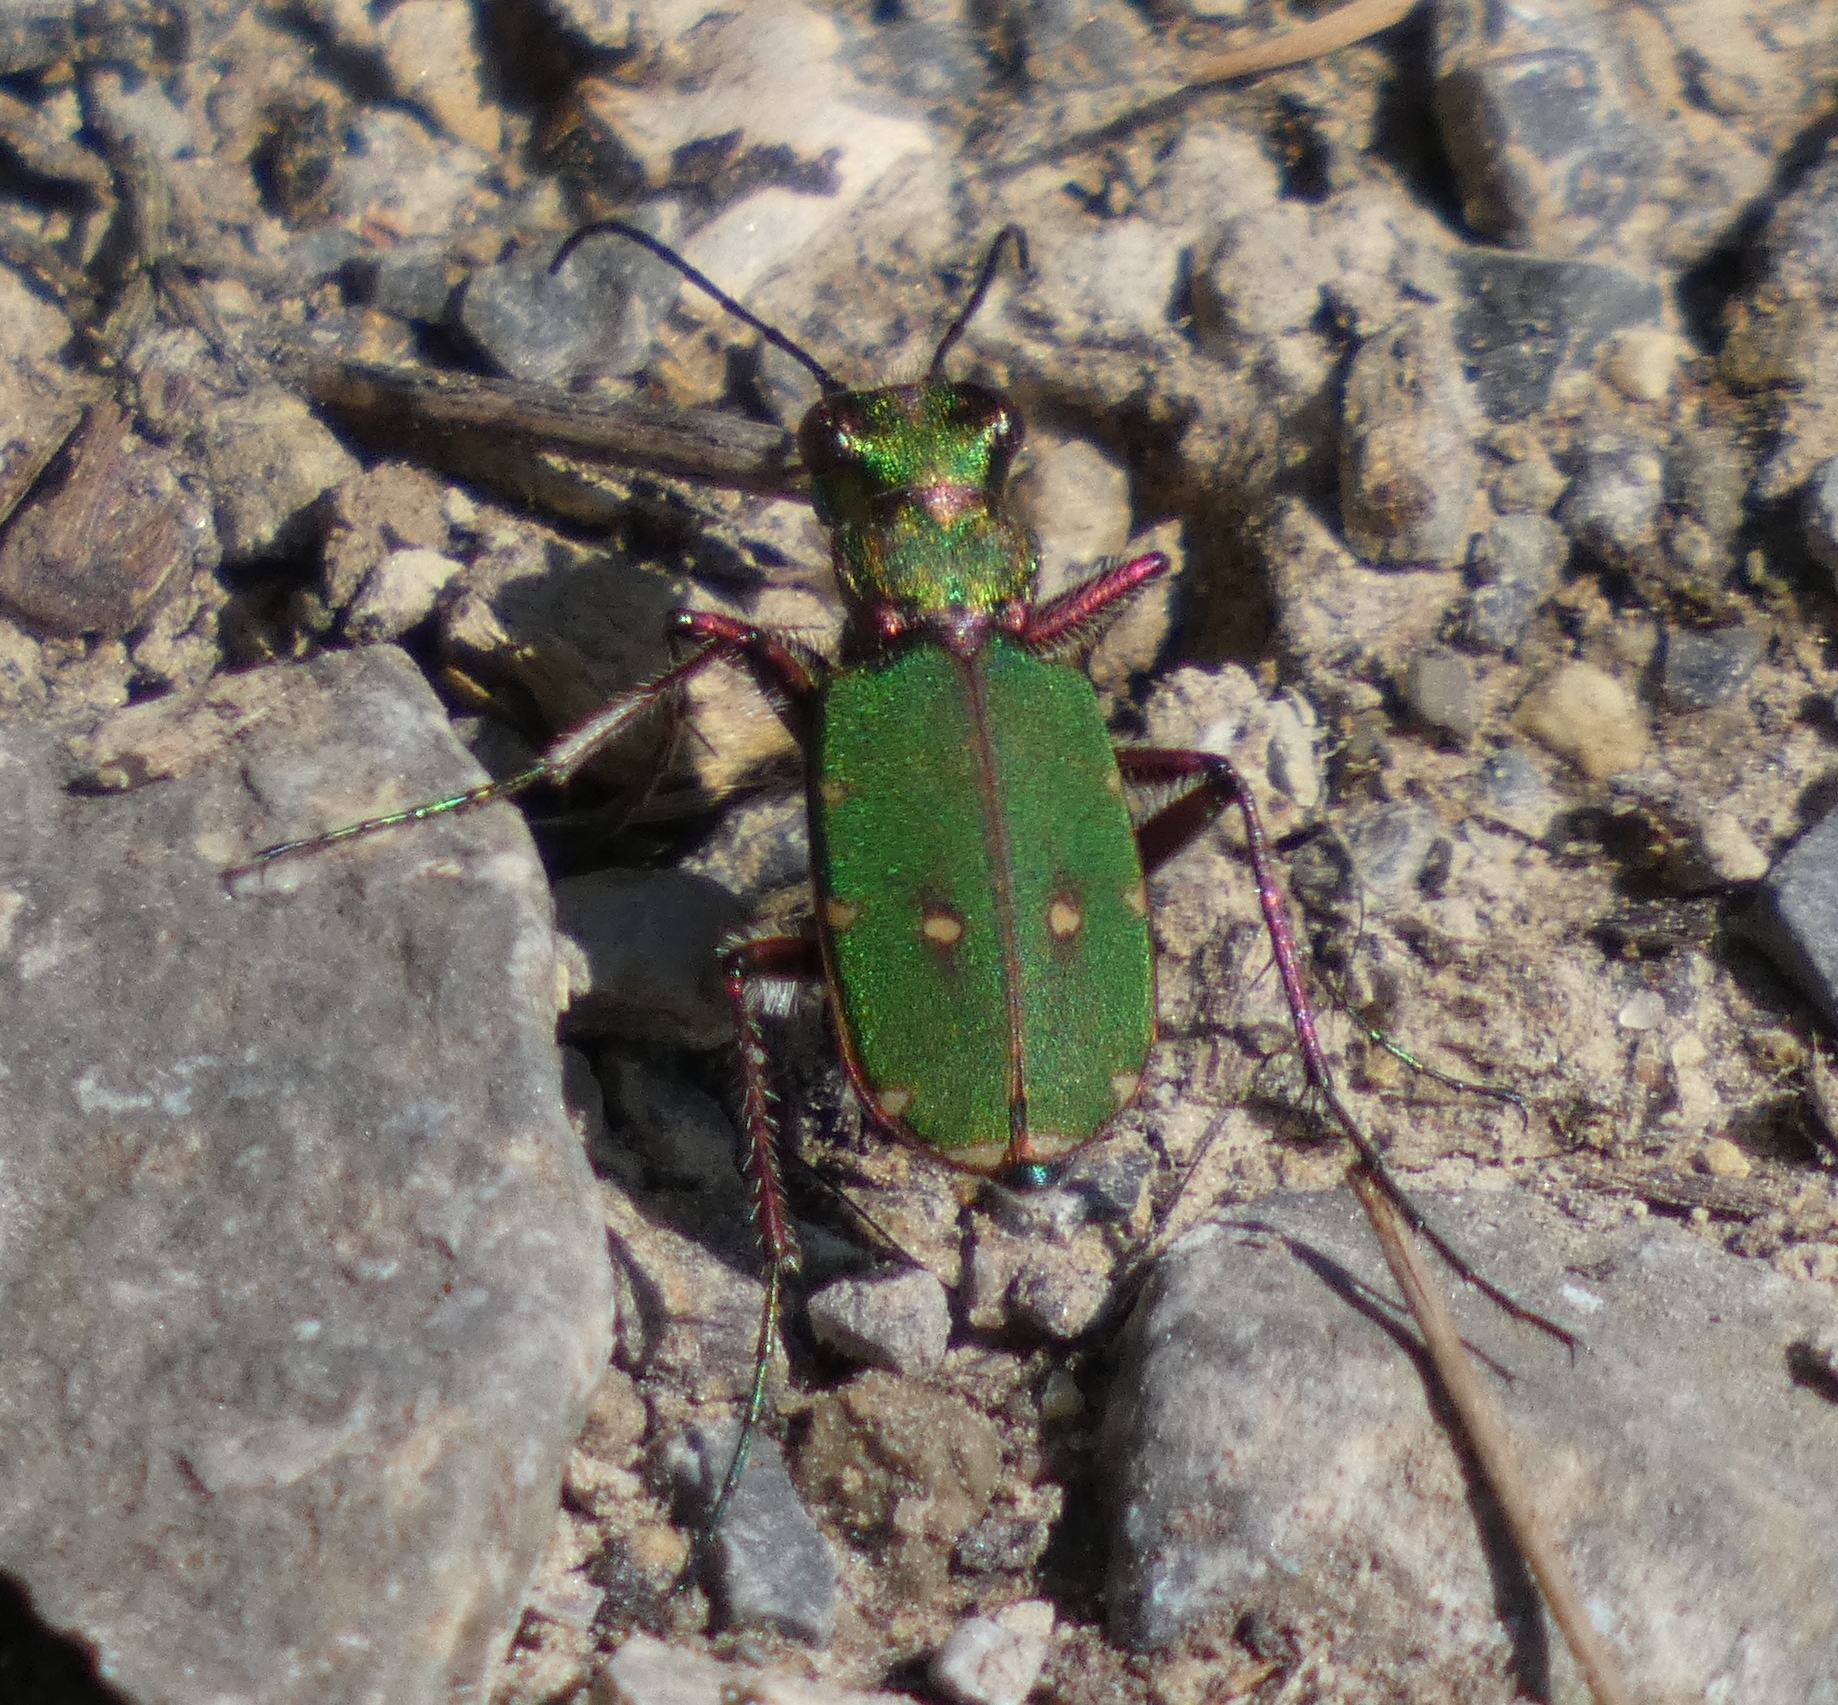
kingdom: Animalia
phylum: Arthropoda
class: Insecta
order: Coleoptera
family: Carabidae
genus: Cicindela
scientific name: Cicindela campestris
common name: Common tiger beetle
